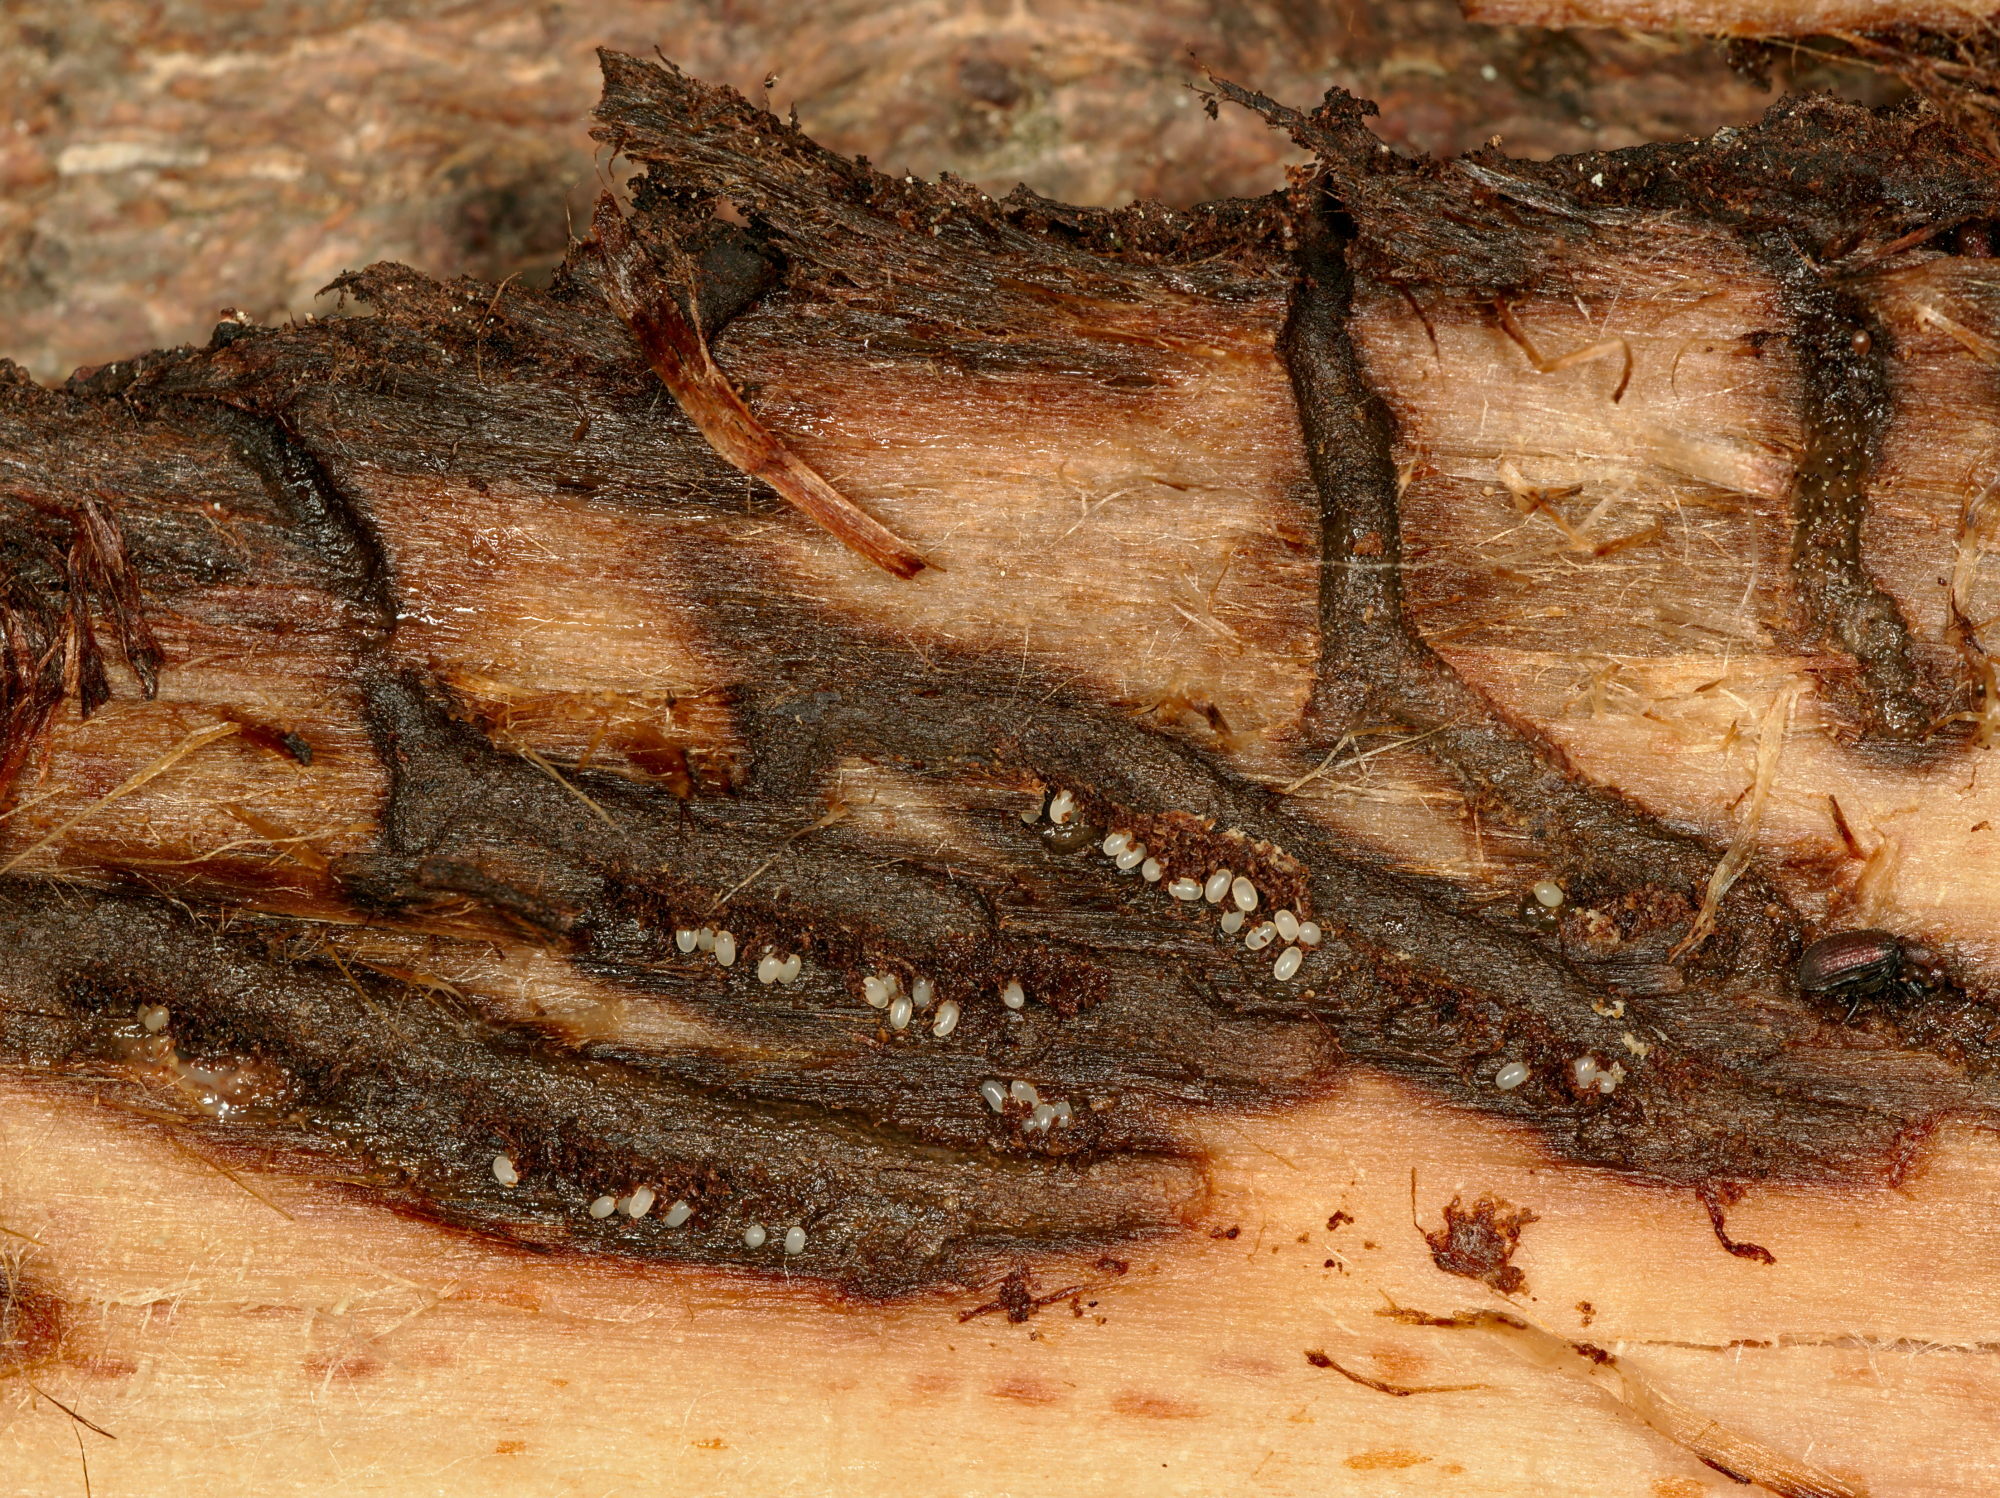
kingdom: Animalia
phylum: Arthropoda
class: Insecta
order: Coleoptera
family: Curculionidae
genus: Hylurgops
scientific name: Hylurgops palliatus
